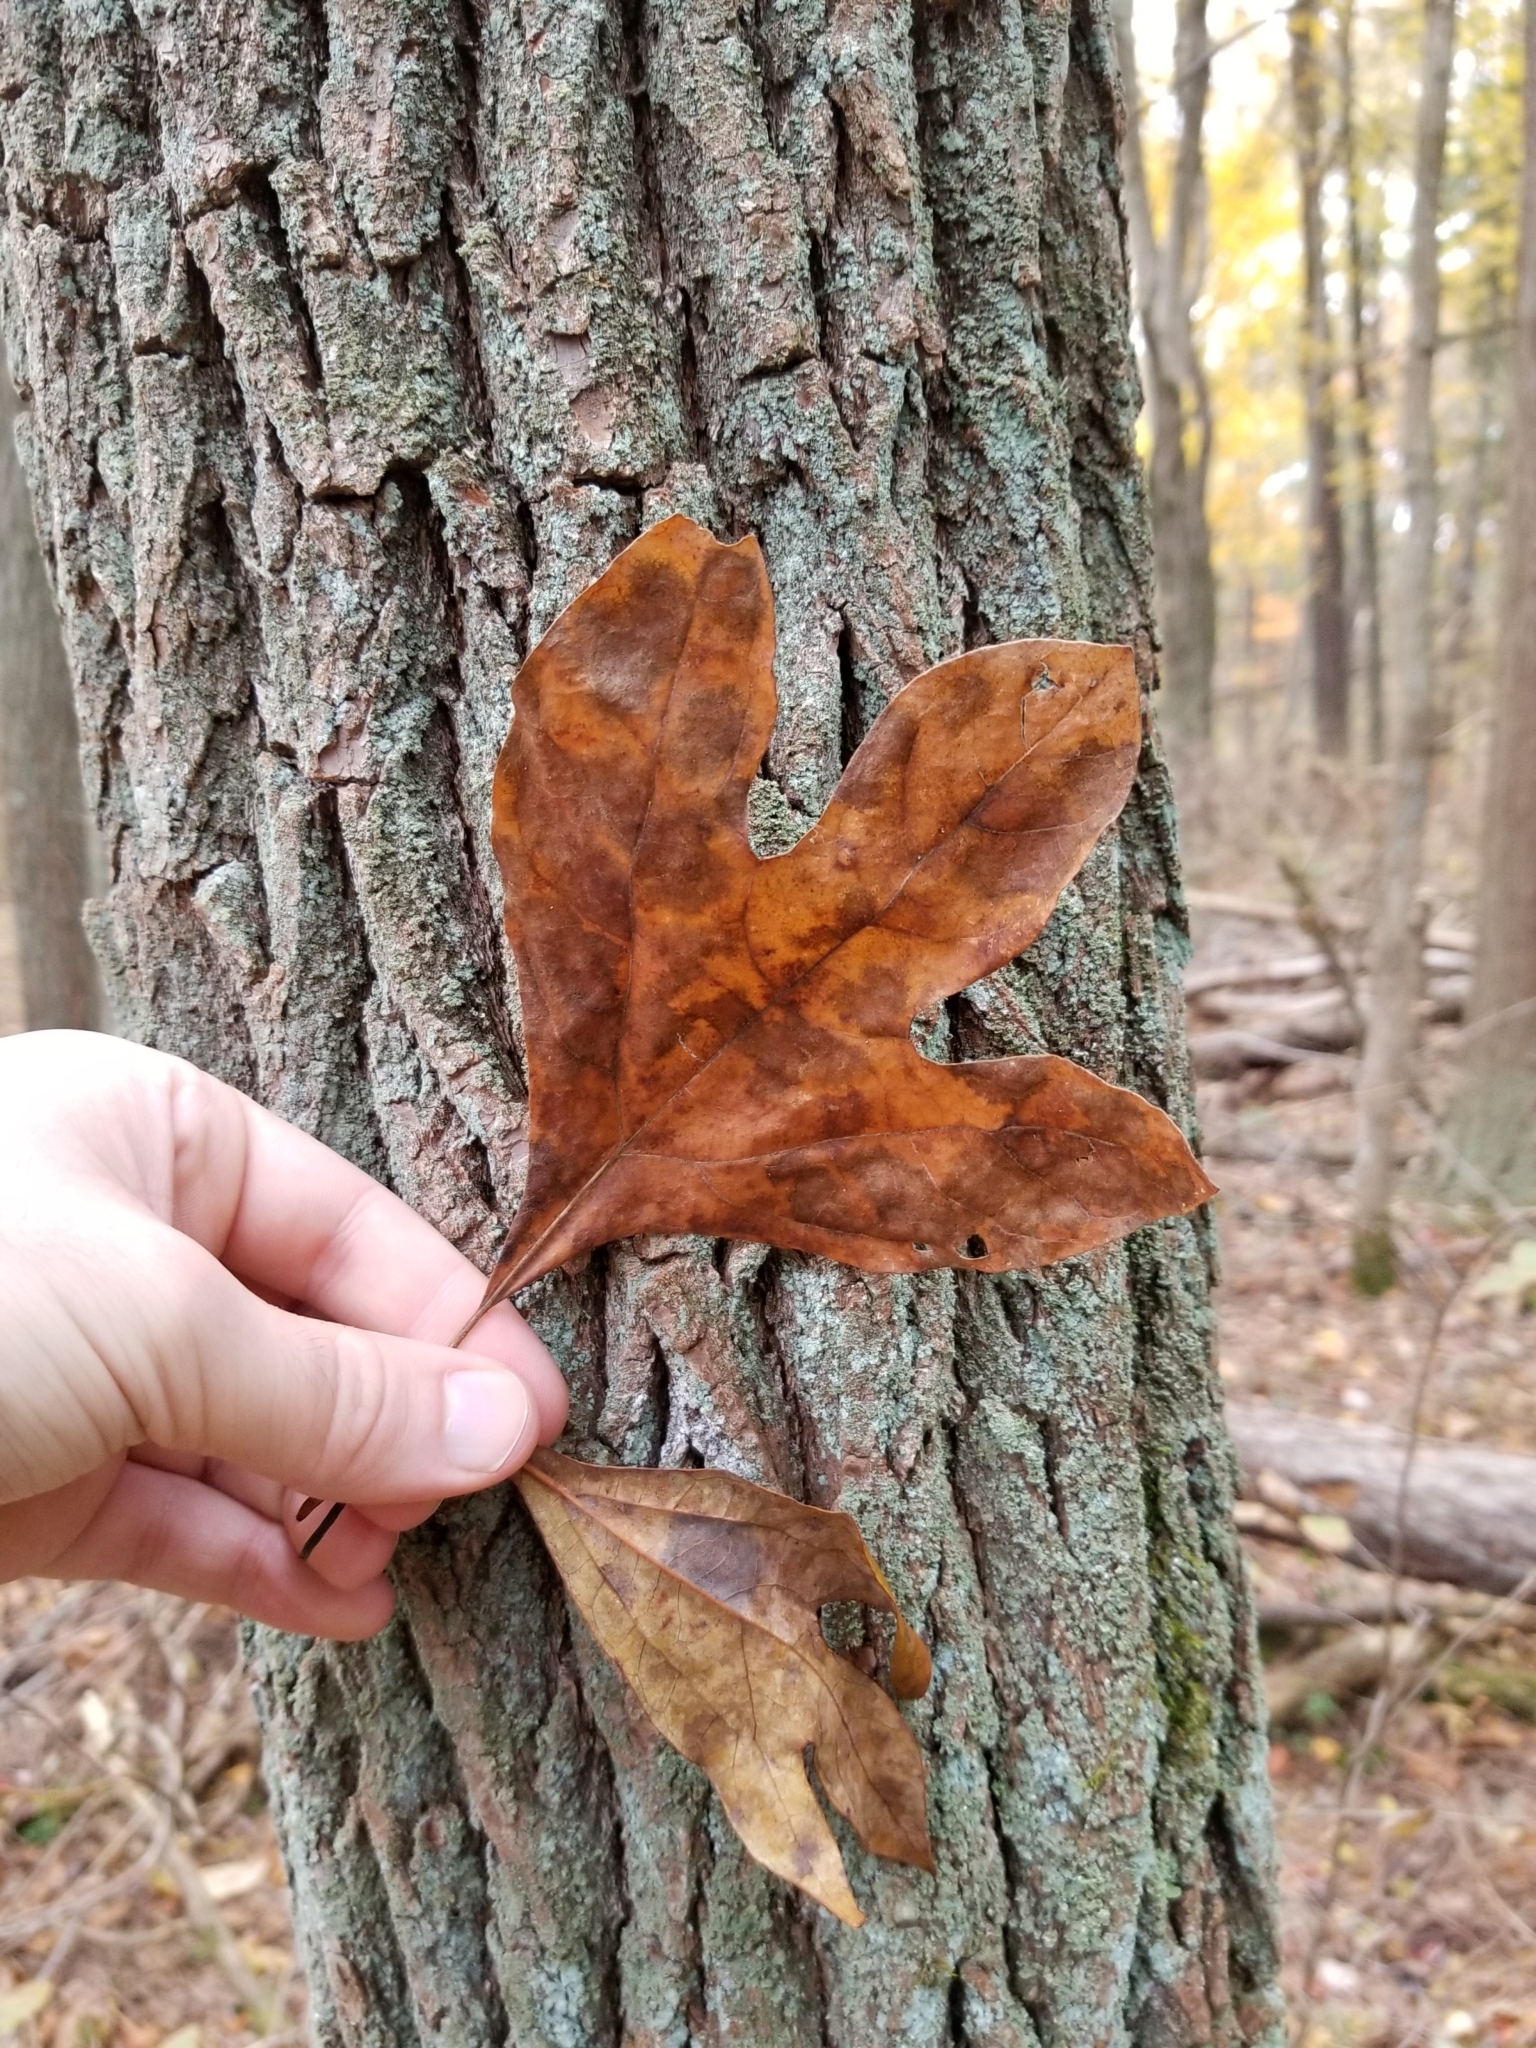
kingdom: Plantae
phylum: Tracheophyta
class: Magnoliopsida
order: Laurales
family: Lauraceae
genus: Sassafras
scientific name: Sassafras albidum
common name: Sassafras
